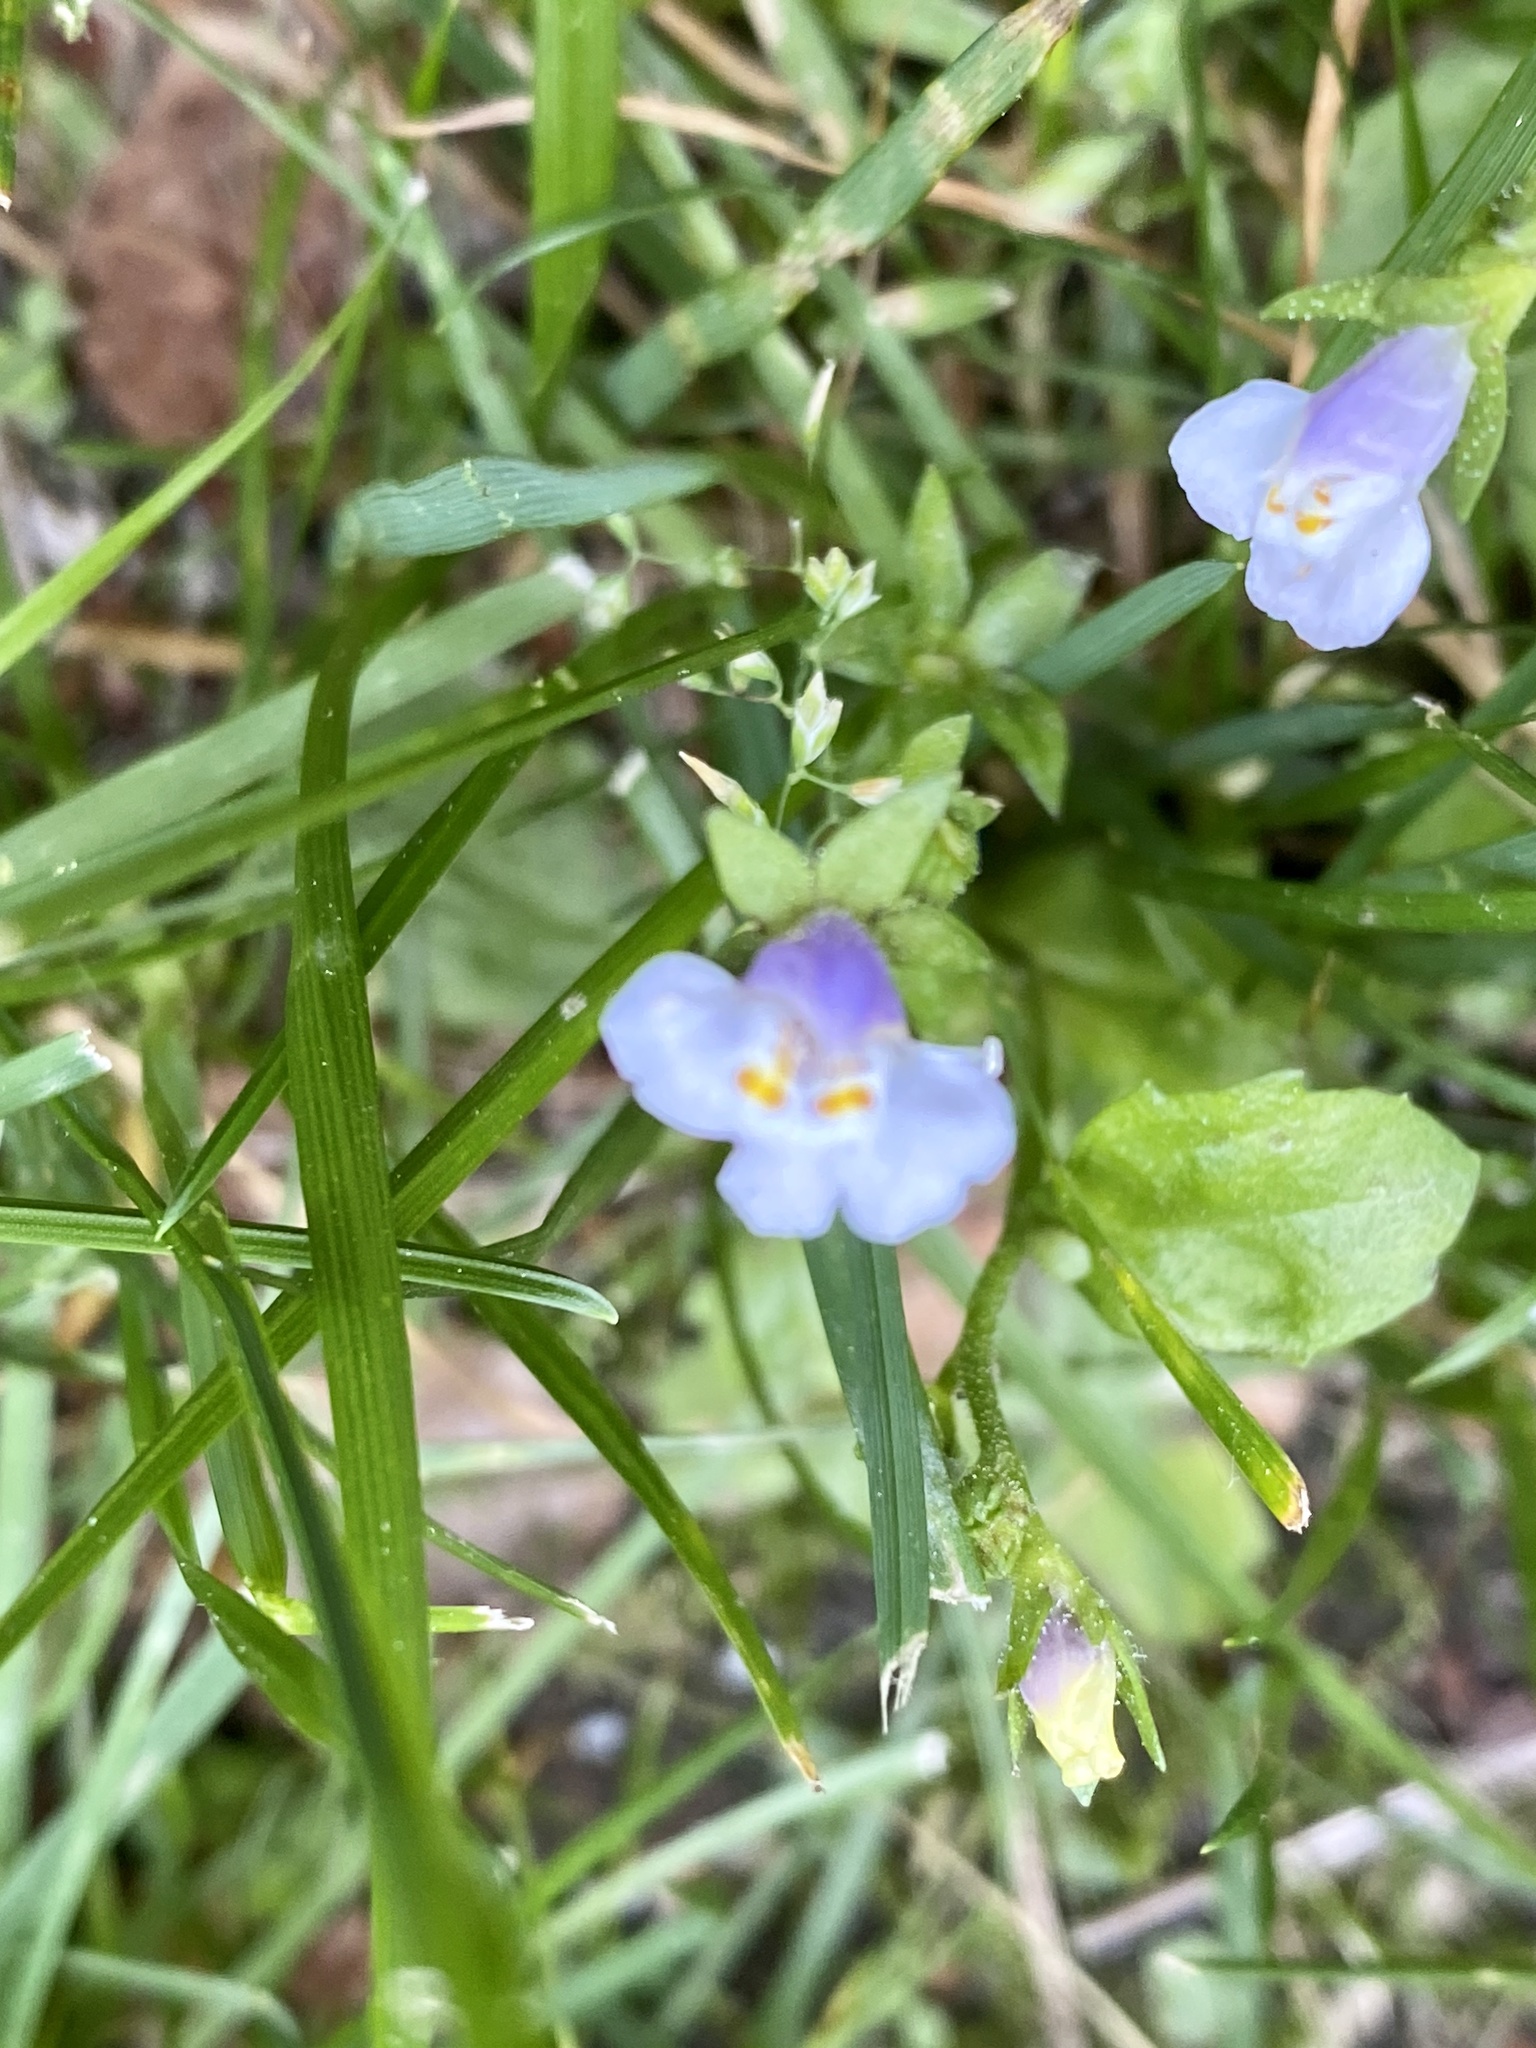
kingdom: Plantae
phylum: Tracheophyta
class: Magnoliopsida
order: Lamiales
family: Mazaceae
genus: Mazus
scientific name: Mazus pumilus
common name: Japanese mazus
